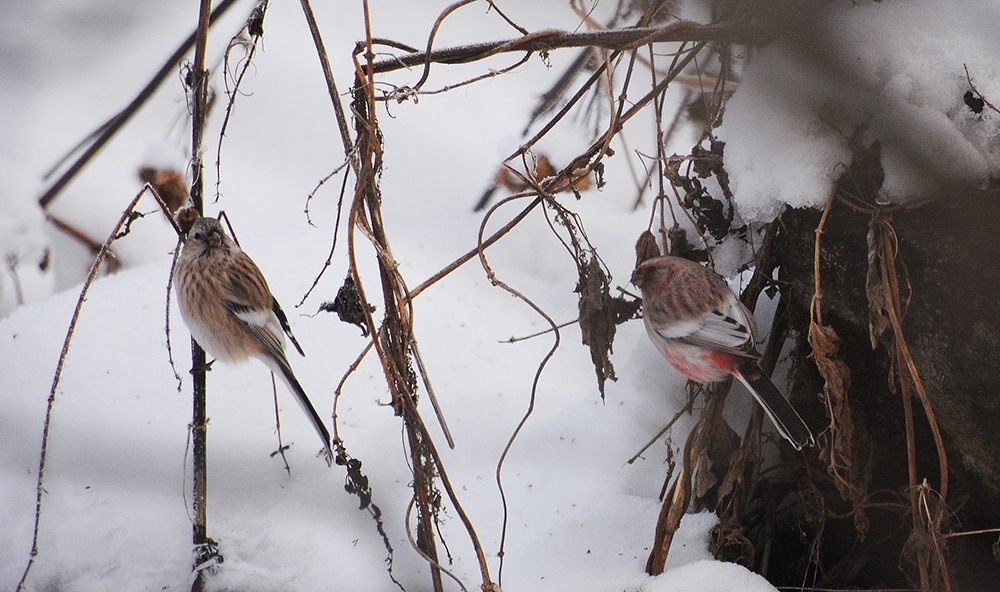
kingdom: Animalia
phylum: Chordata
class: Aves
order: Passeriformes
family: Fringillidae
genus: Carpodacus
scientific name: Carpodacus sibiricus
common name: Long-tailed rosefinch
